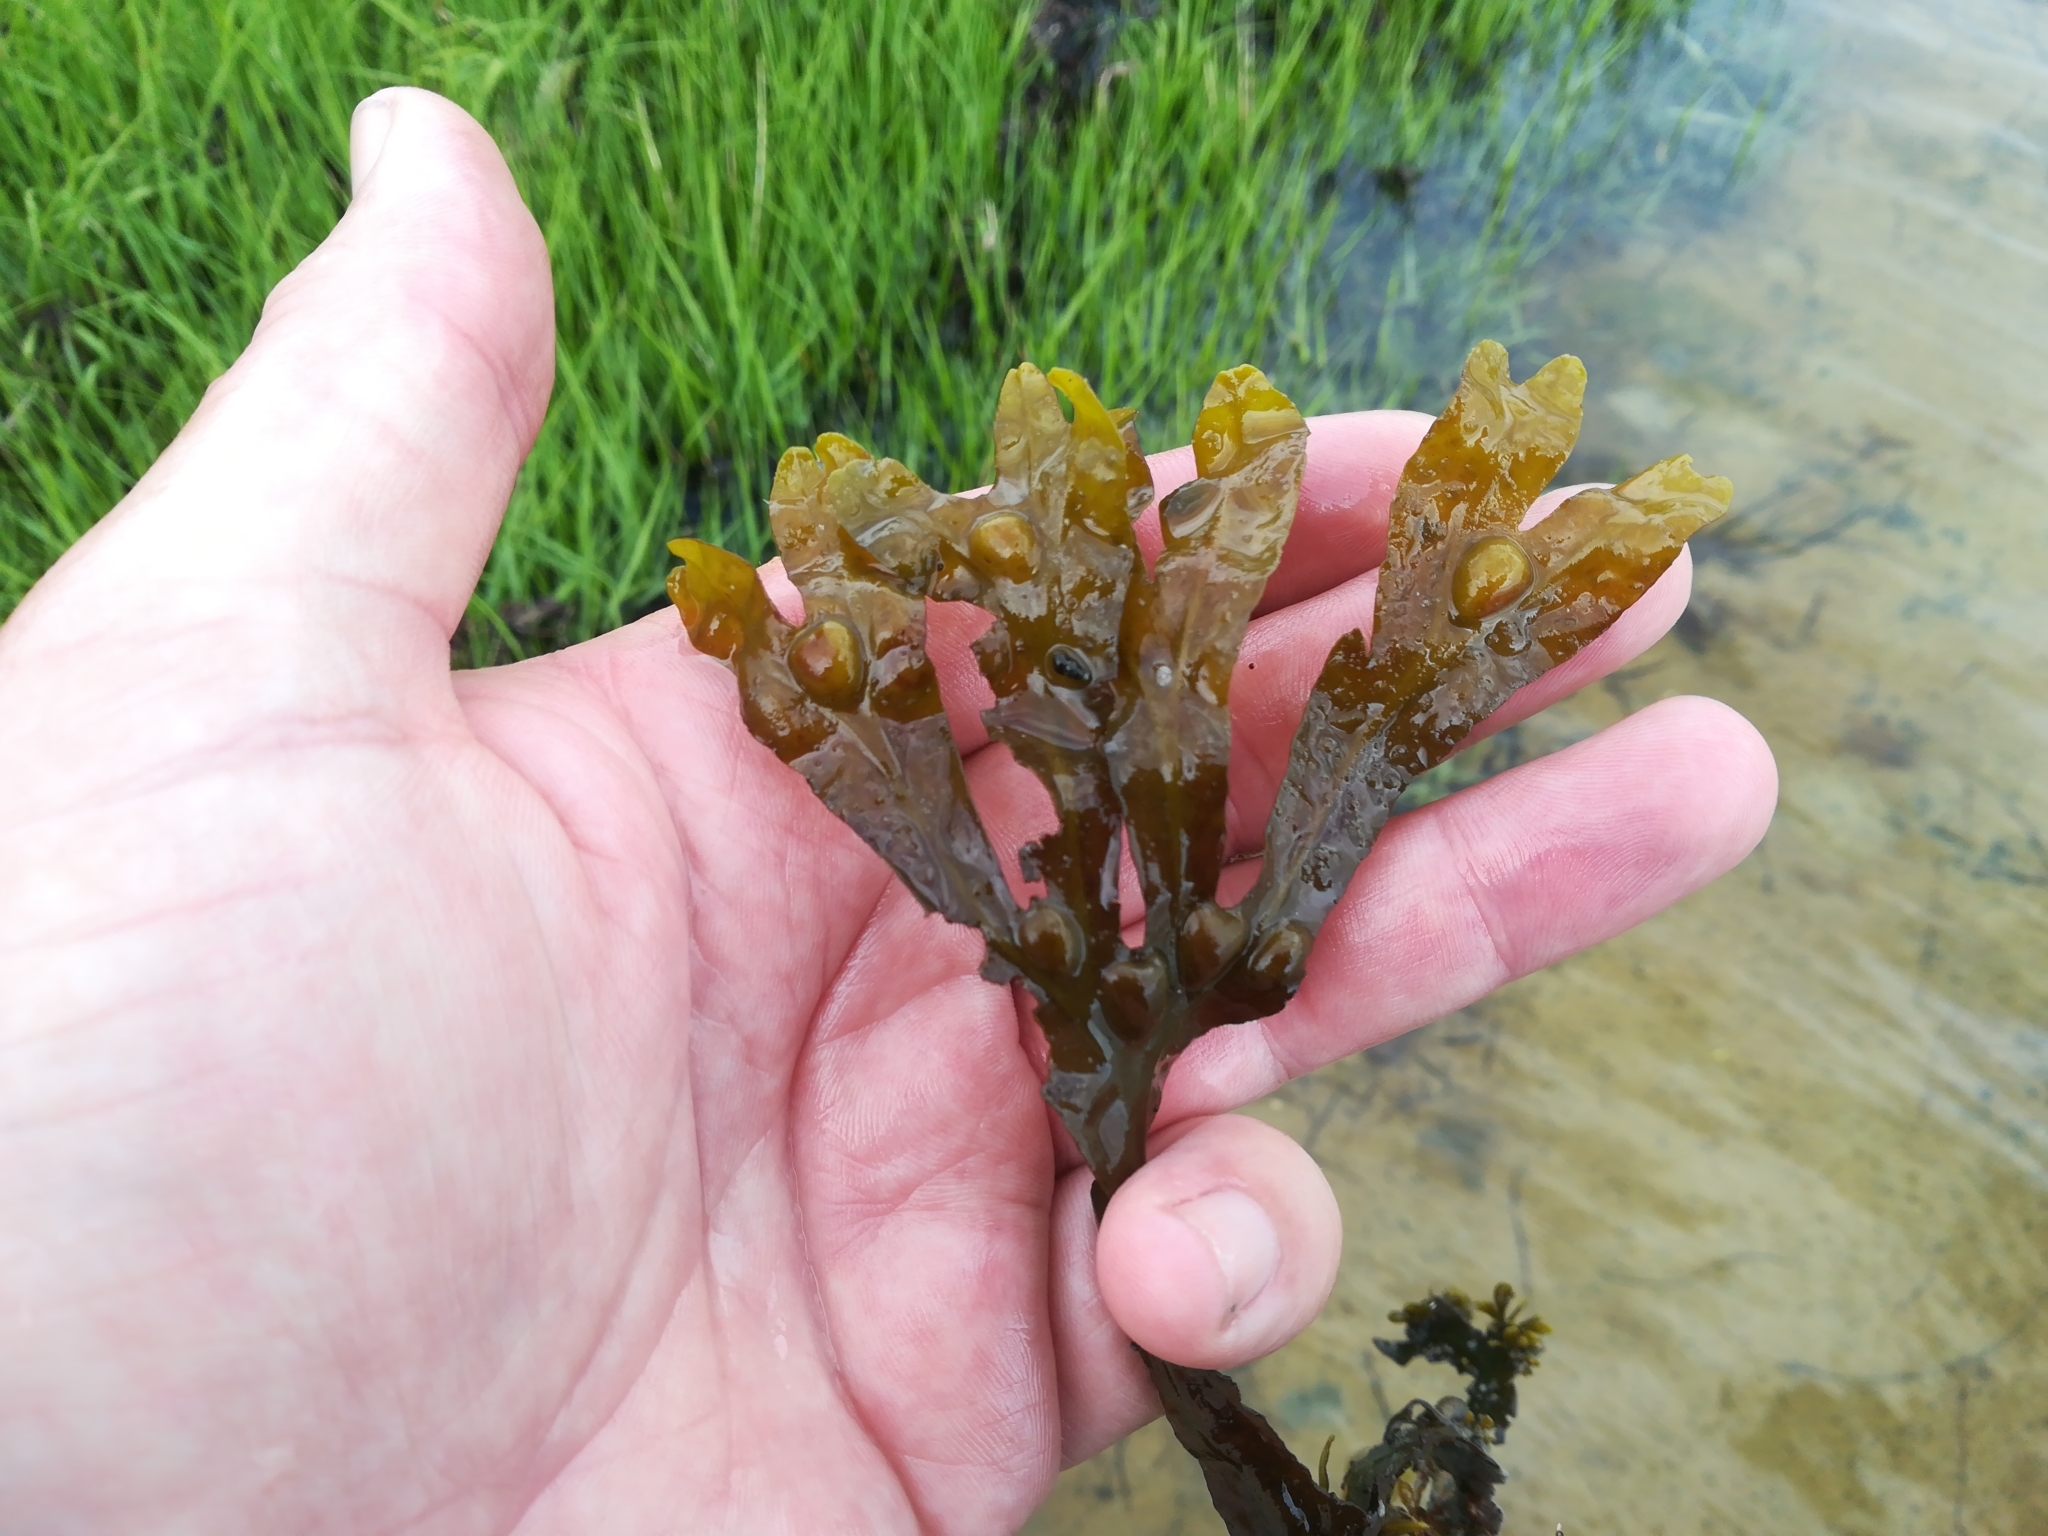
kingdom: Chromista
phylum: Ochrophyta
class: Phaeophyceae
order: Fucales
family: Fucaceae
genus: Fucus
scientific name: Fucus vesiculosus
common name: Bladder wrack
